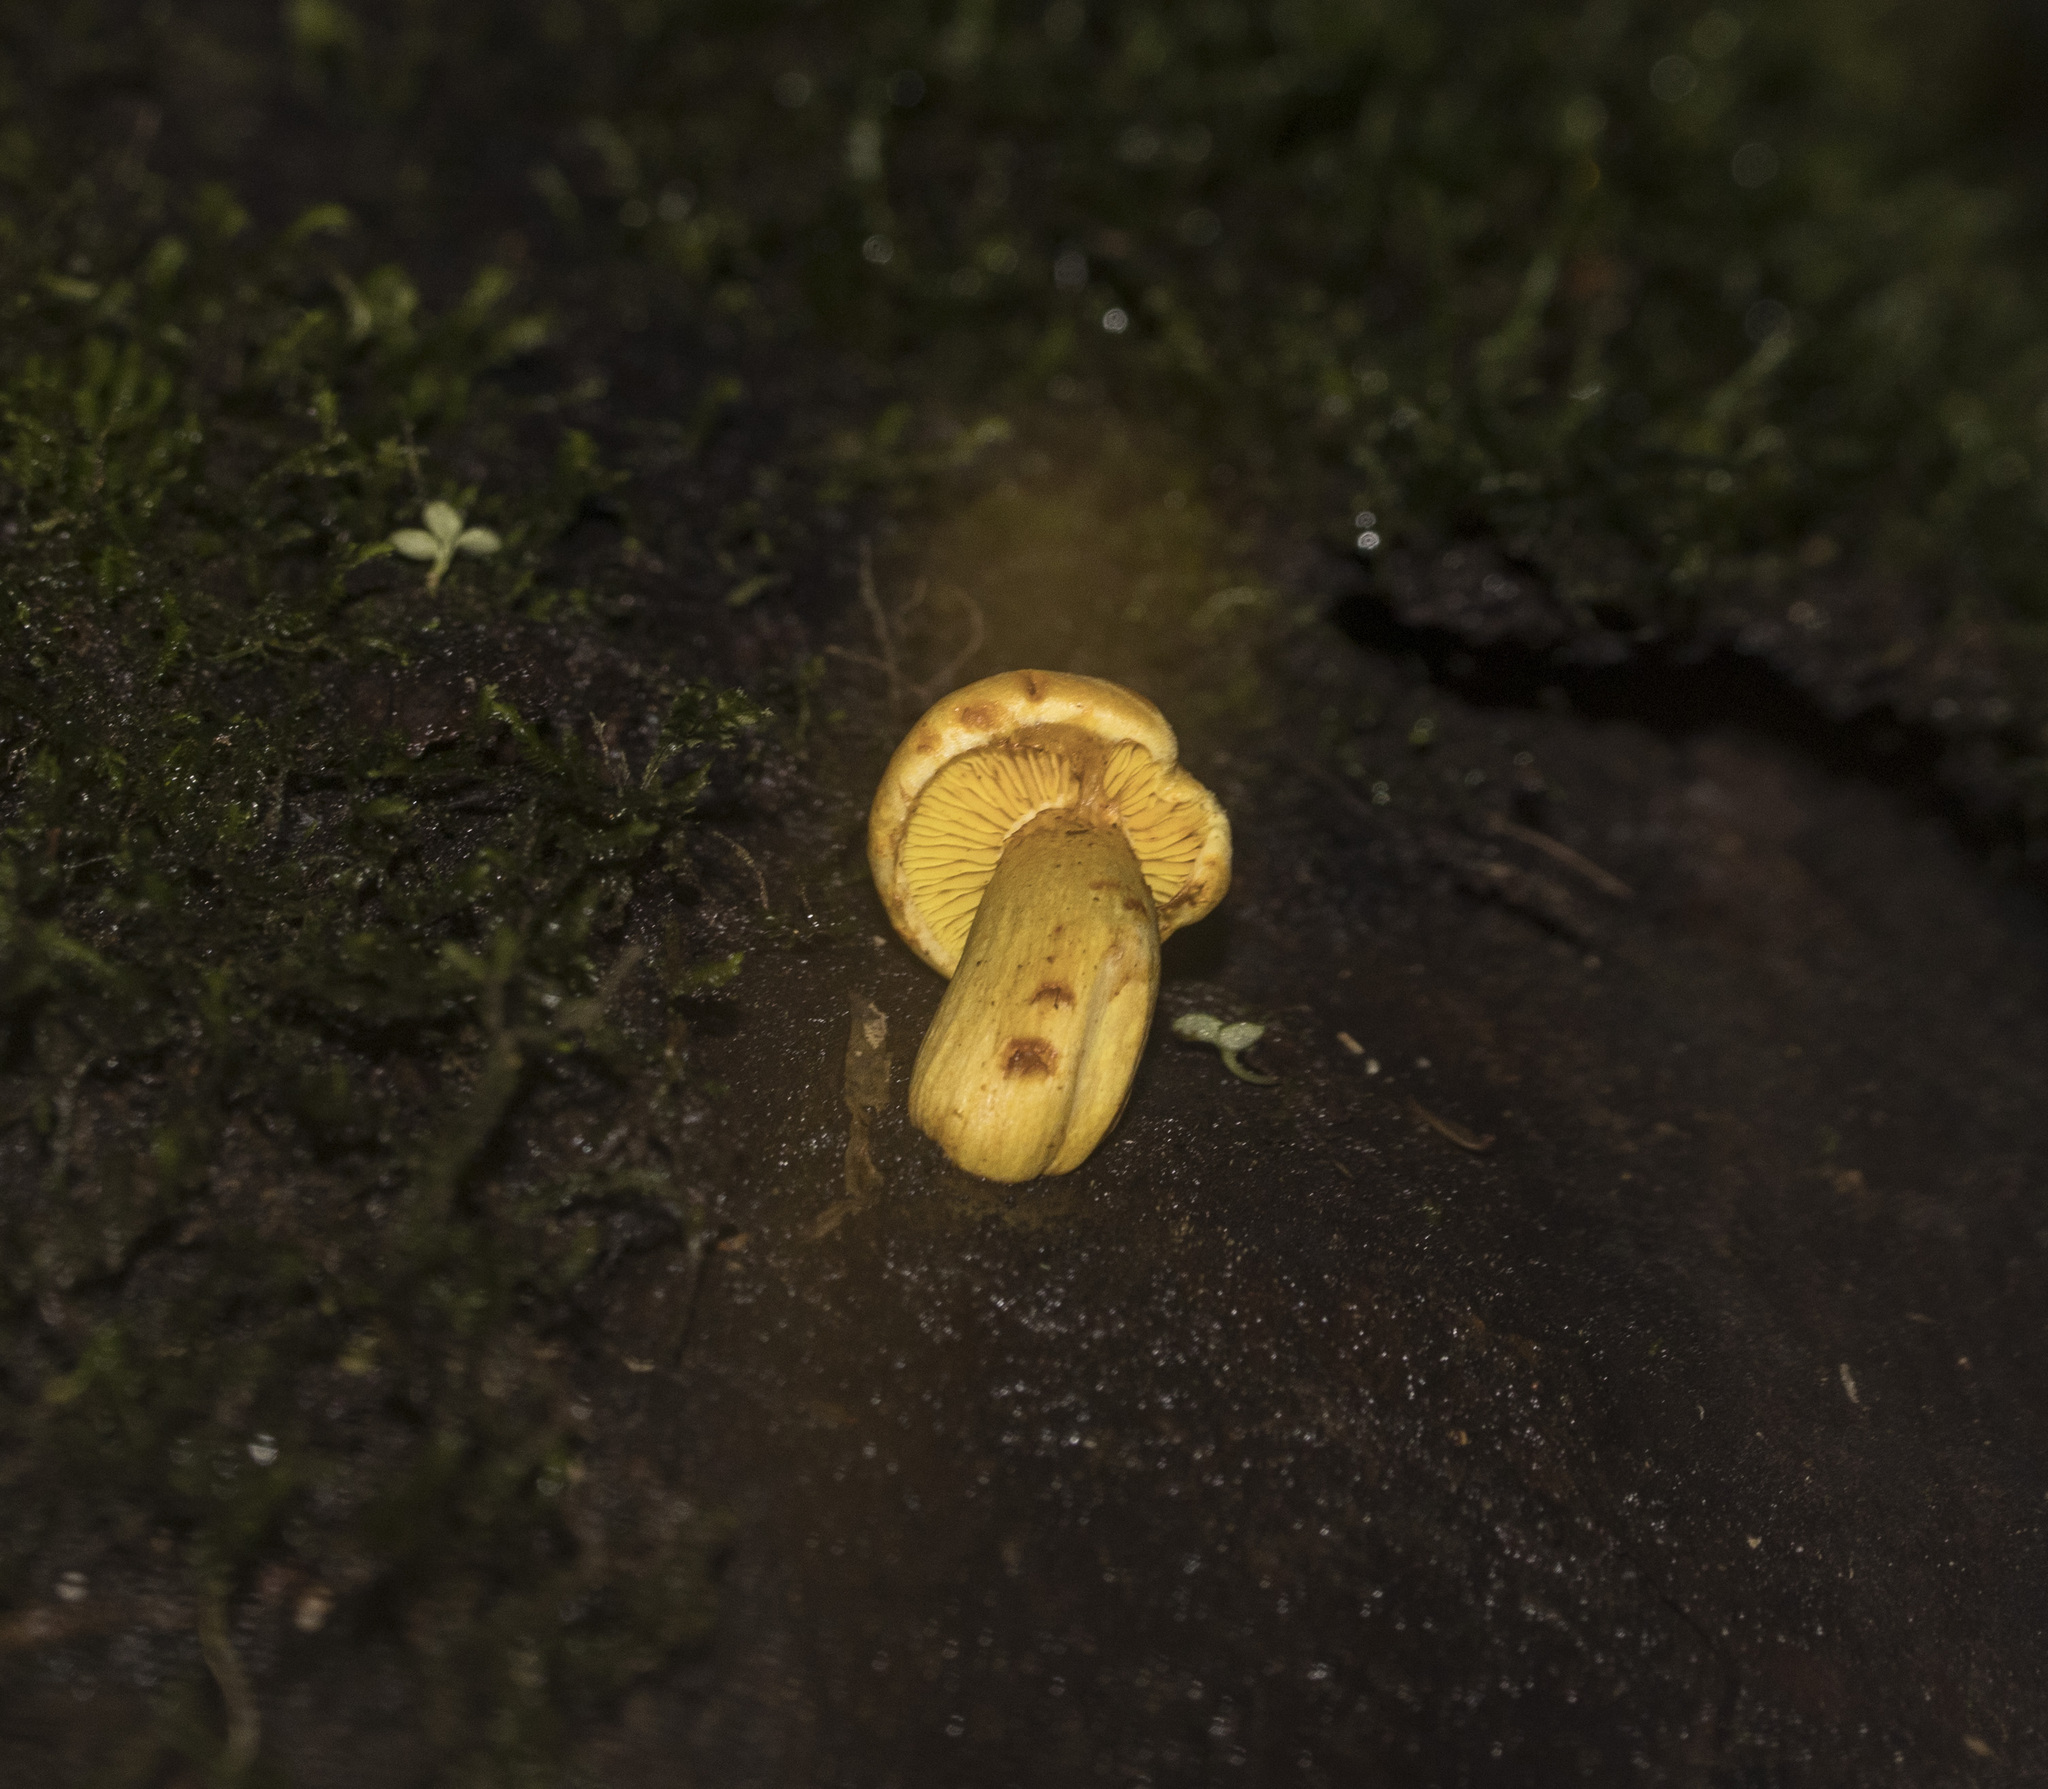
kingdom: Fungi
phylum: Basidiomycota
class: Agaricomycetes
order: Agaricales
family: Hymenogastraceae
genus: Gymnopilus
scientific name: Gymnopilus chilensis
